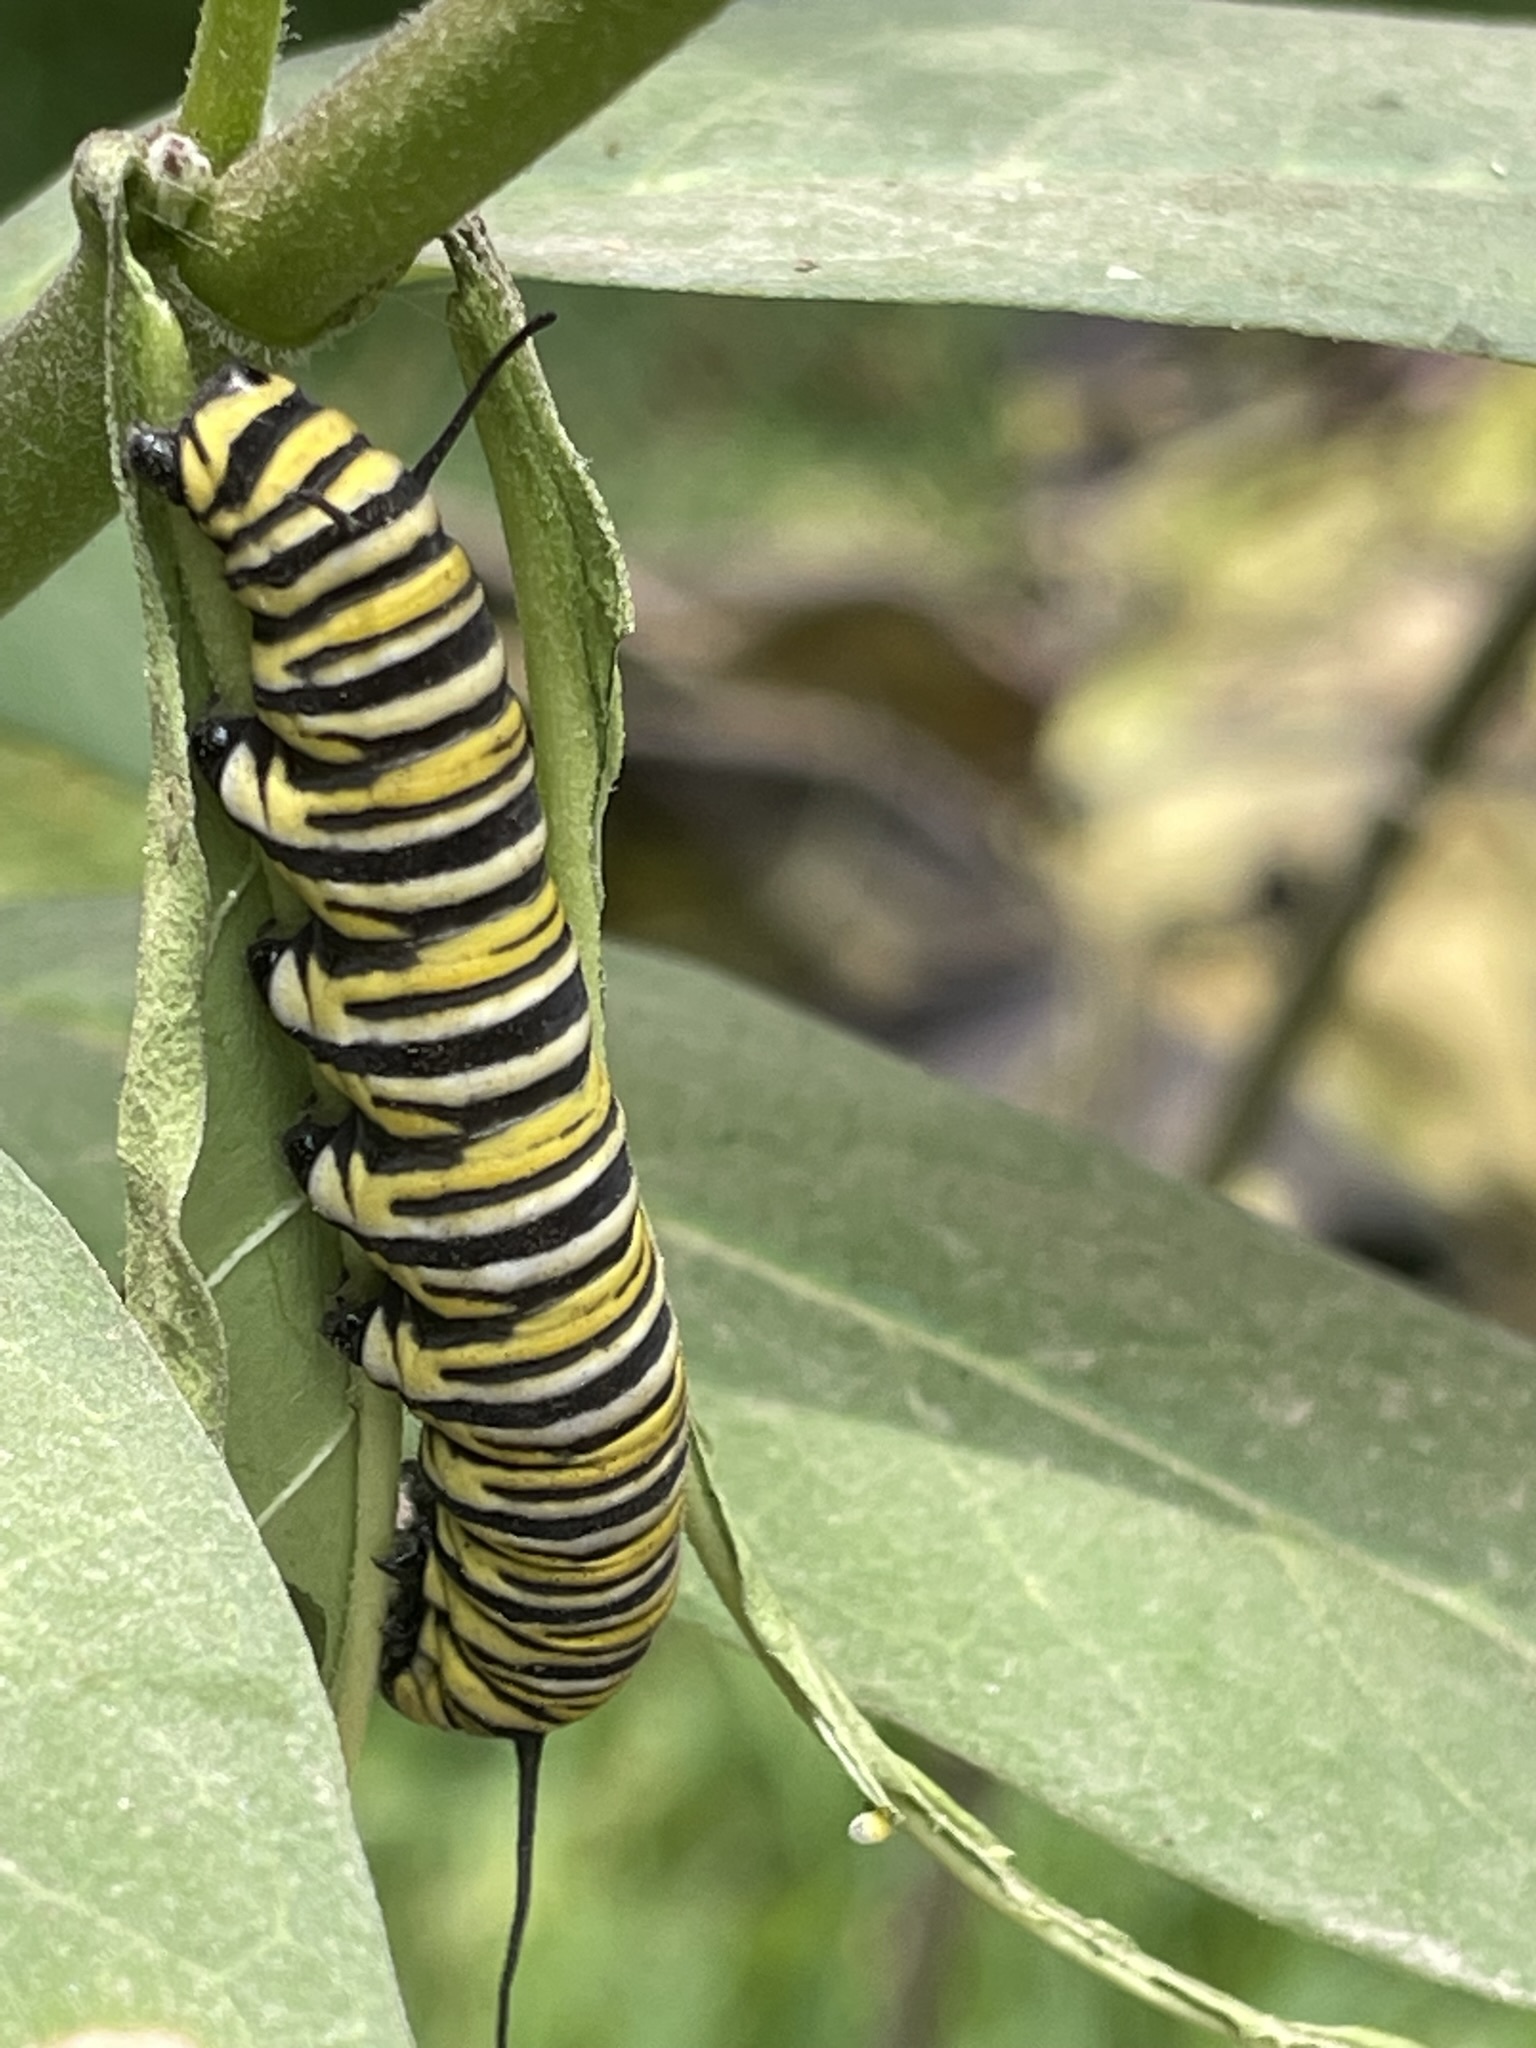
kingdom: Animalia
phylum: Arthropoda
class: Insecta
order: Lepidoptera
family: Nymphalidae
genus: Danaus
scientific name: Danaus plexippus
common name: Monarch
